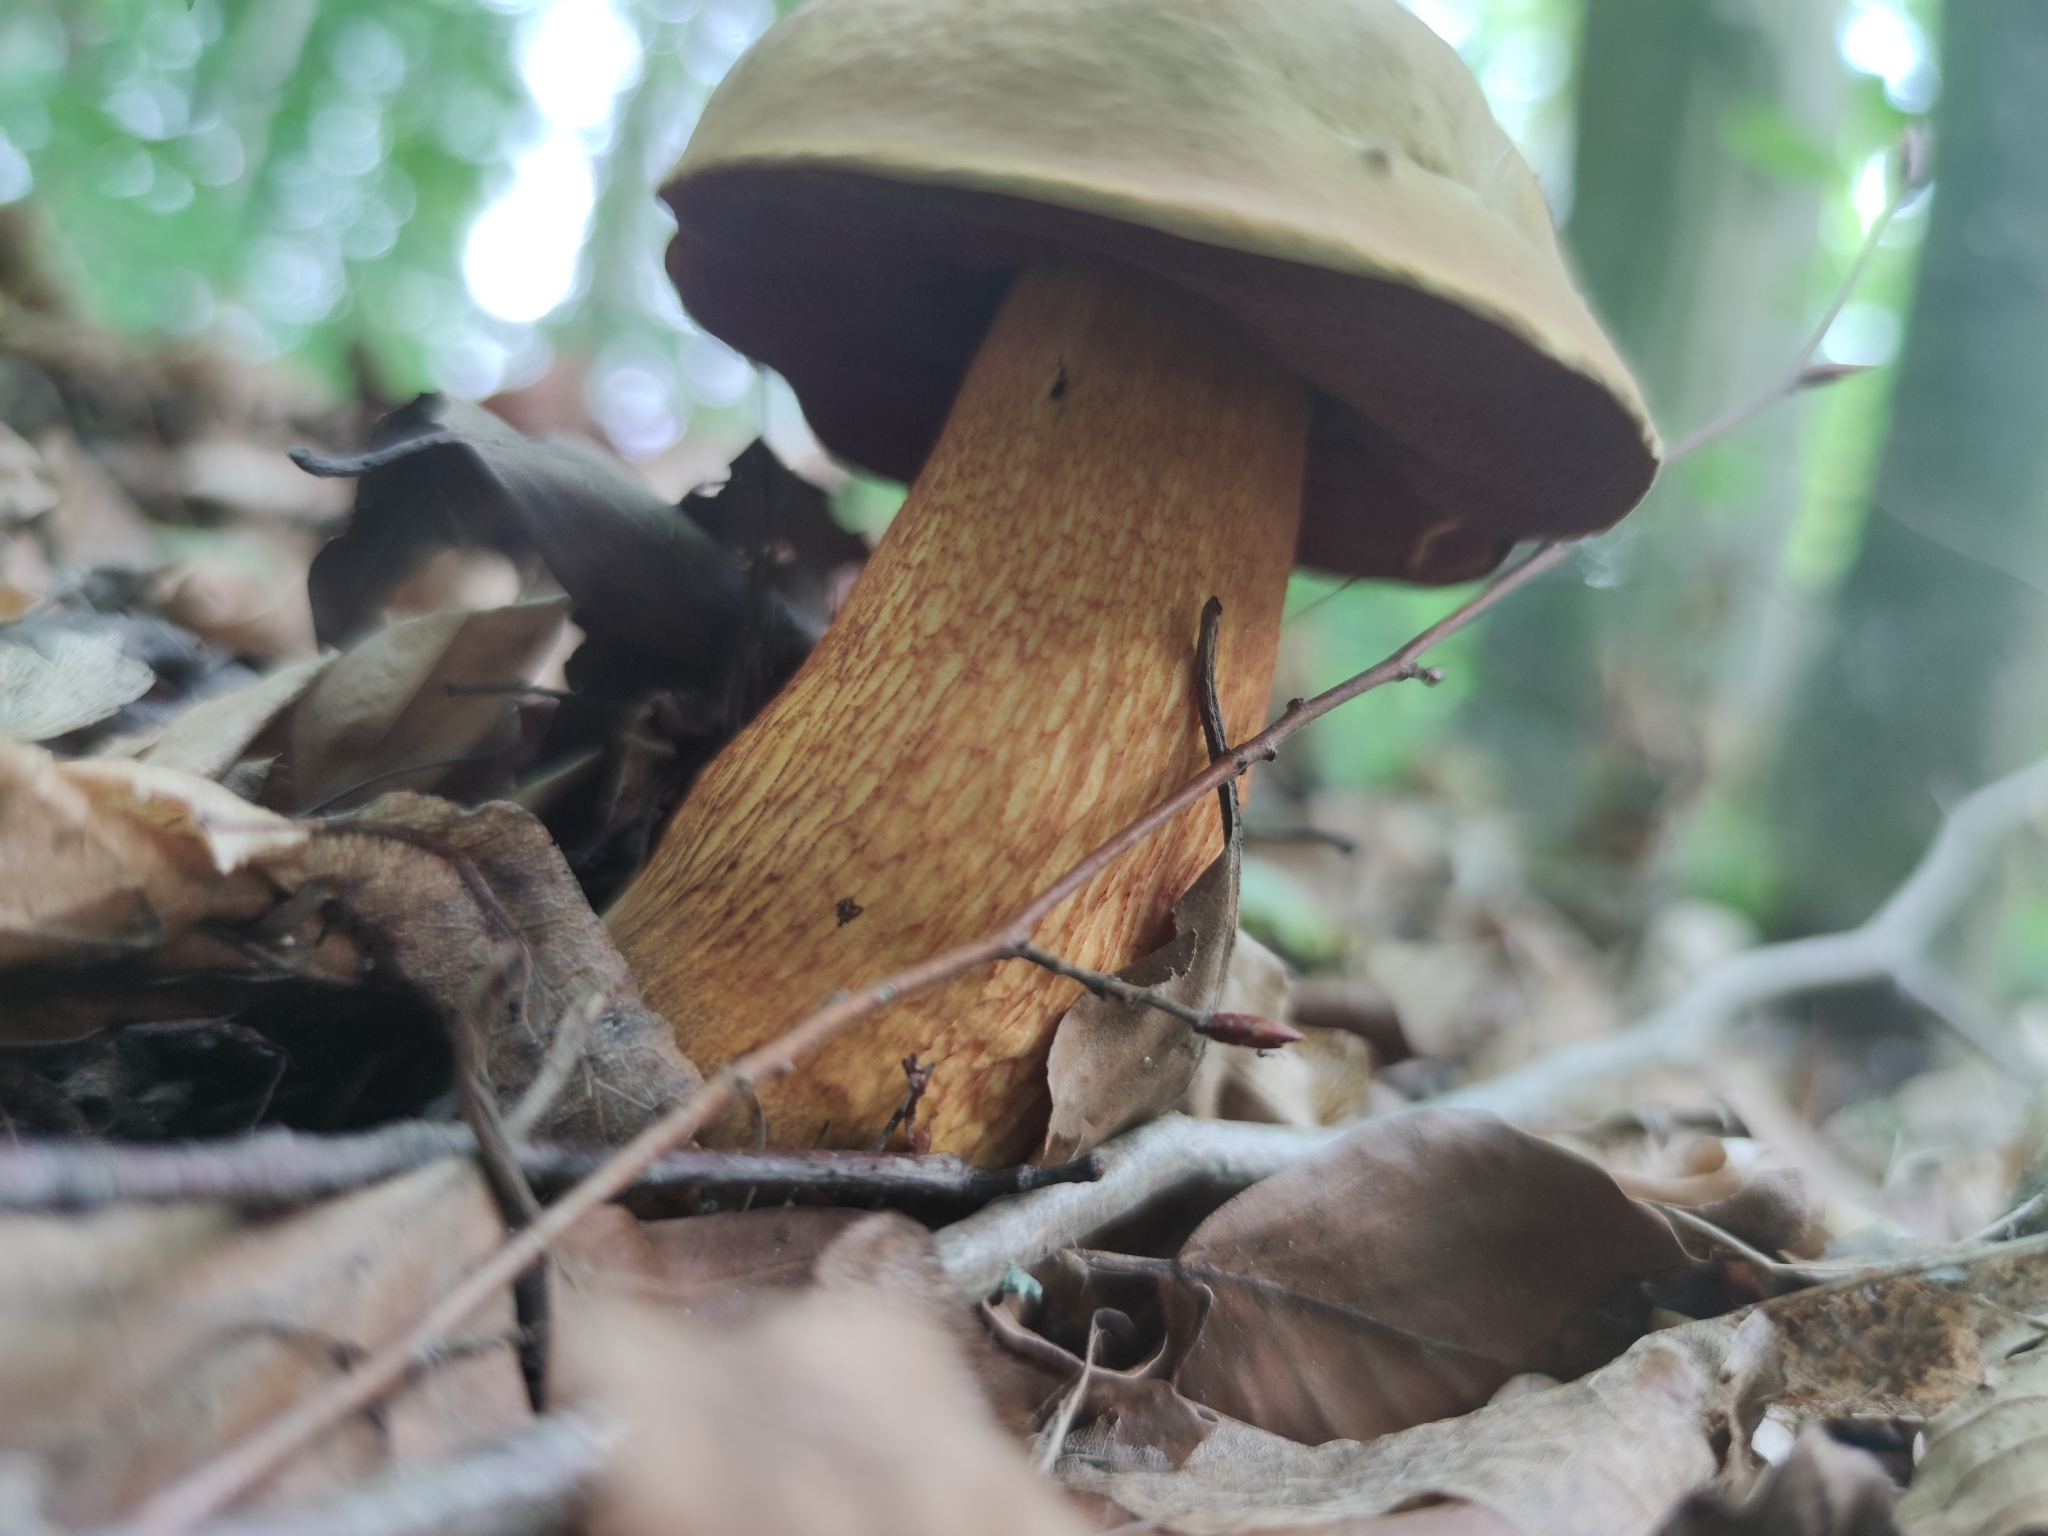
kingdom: Fungi
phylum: Basidiomycota
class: Agaricomycetes
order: Boletales
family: Boletaceae
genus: Suillellus
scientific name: Suillellus luridus
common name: Lurid bolete
